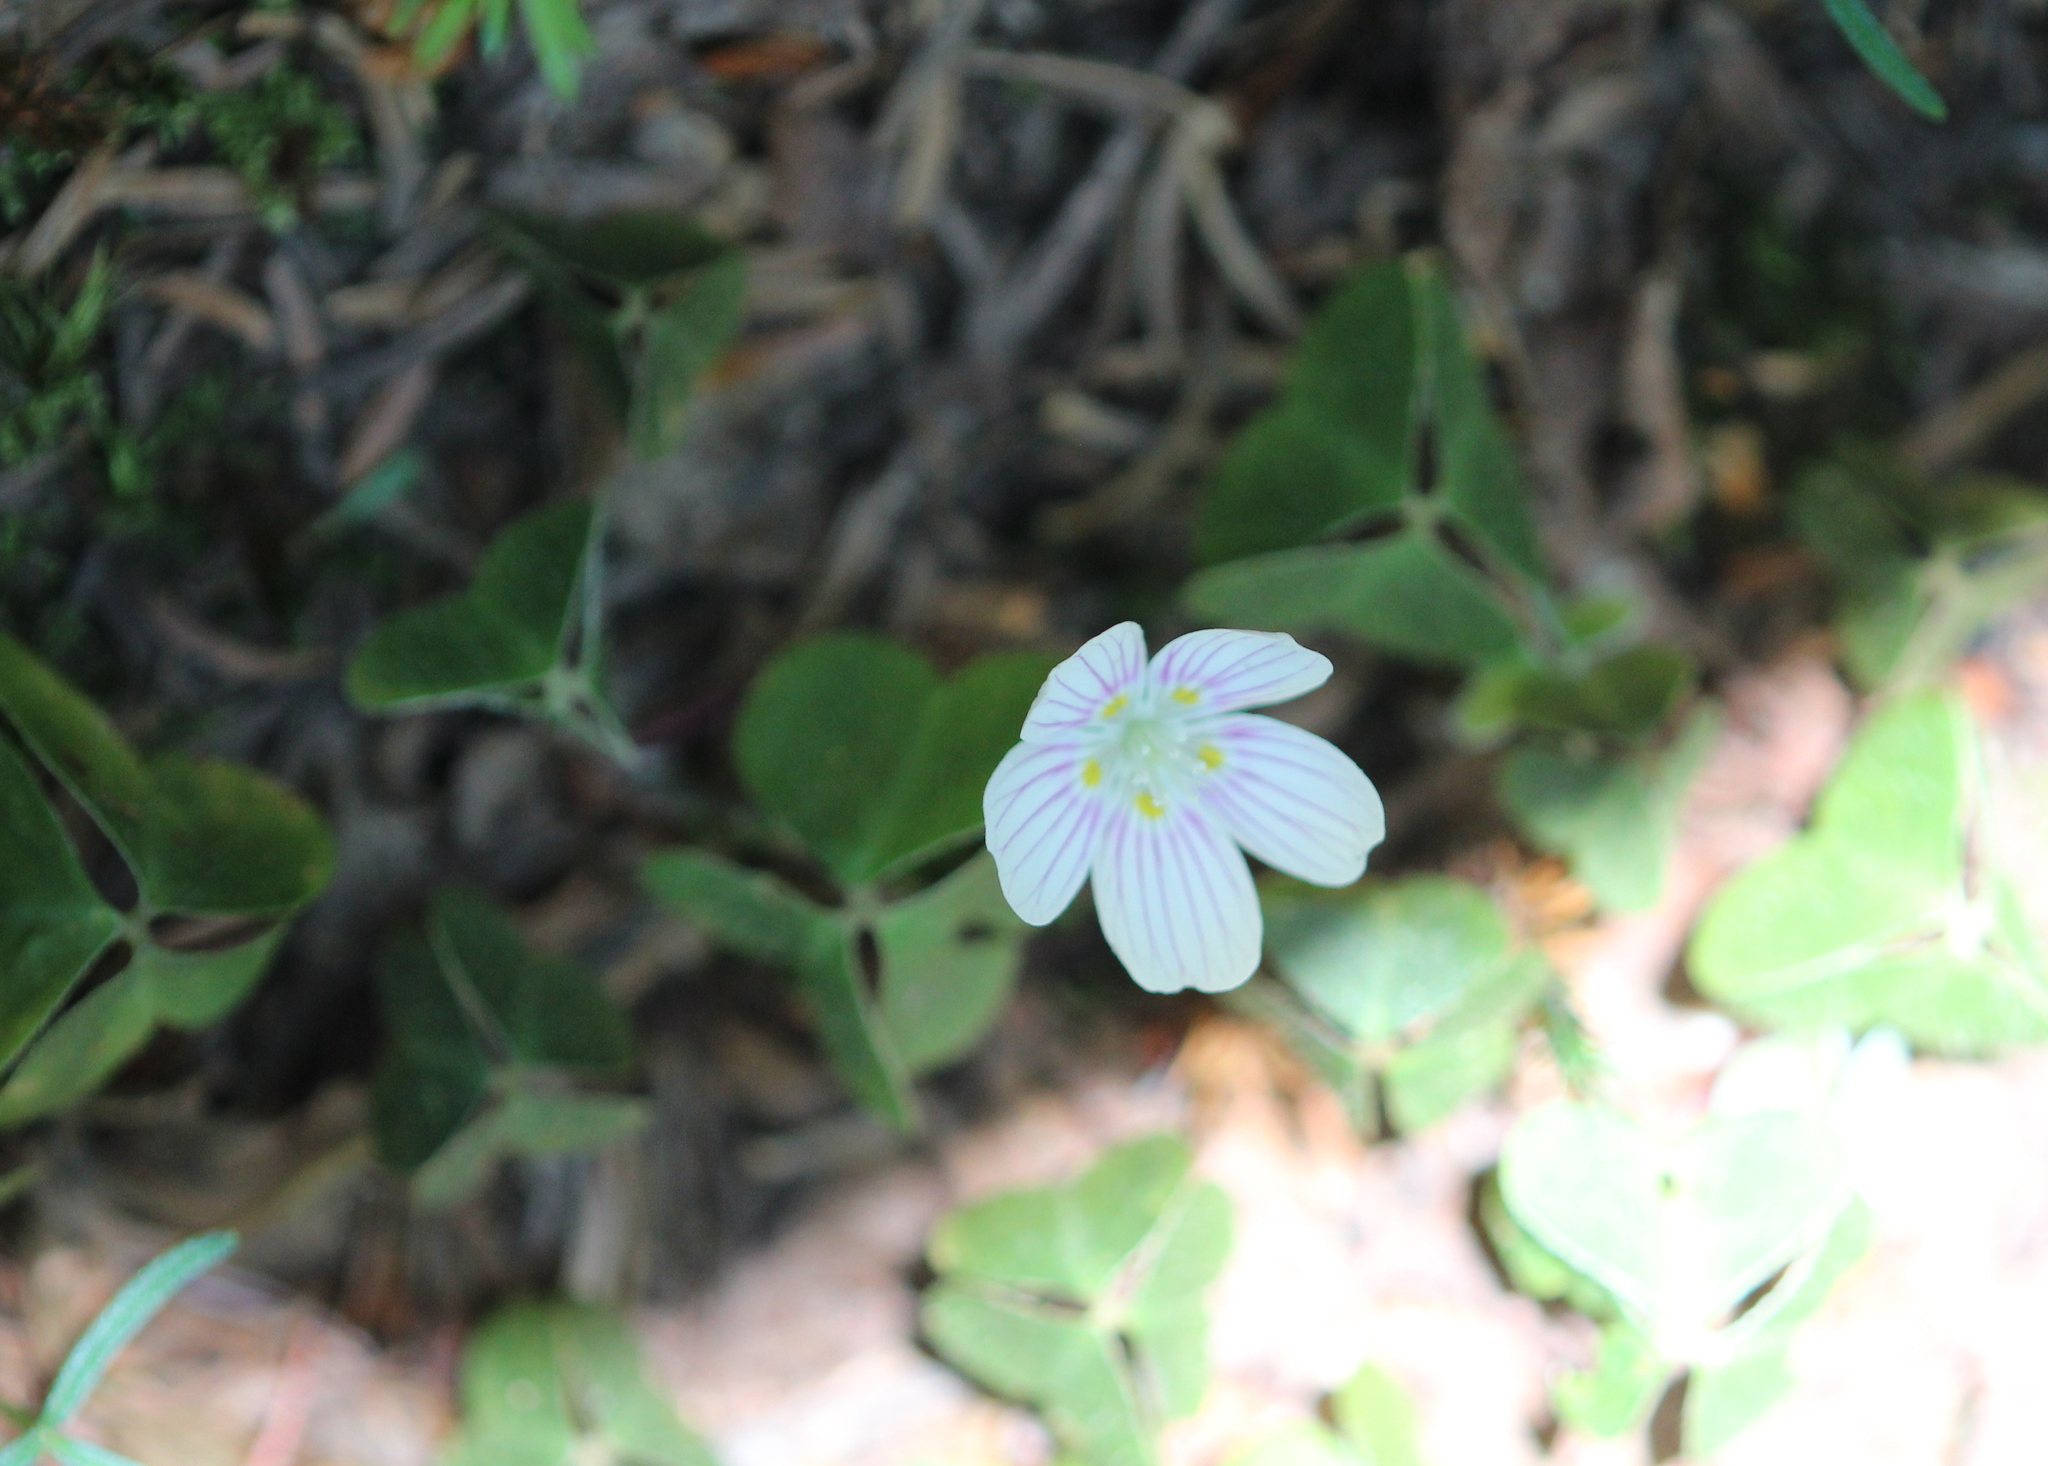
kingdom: Plantae
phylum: Tracheophyta
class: Magnoliopsida
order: Oxalidales
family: Oxalidaceae
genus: Oxalis
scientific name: Oxalis montana
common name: American wood-sorrel
